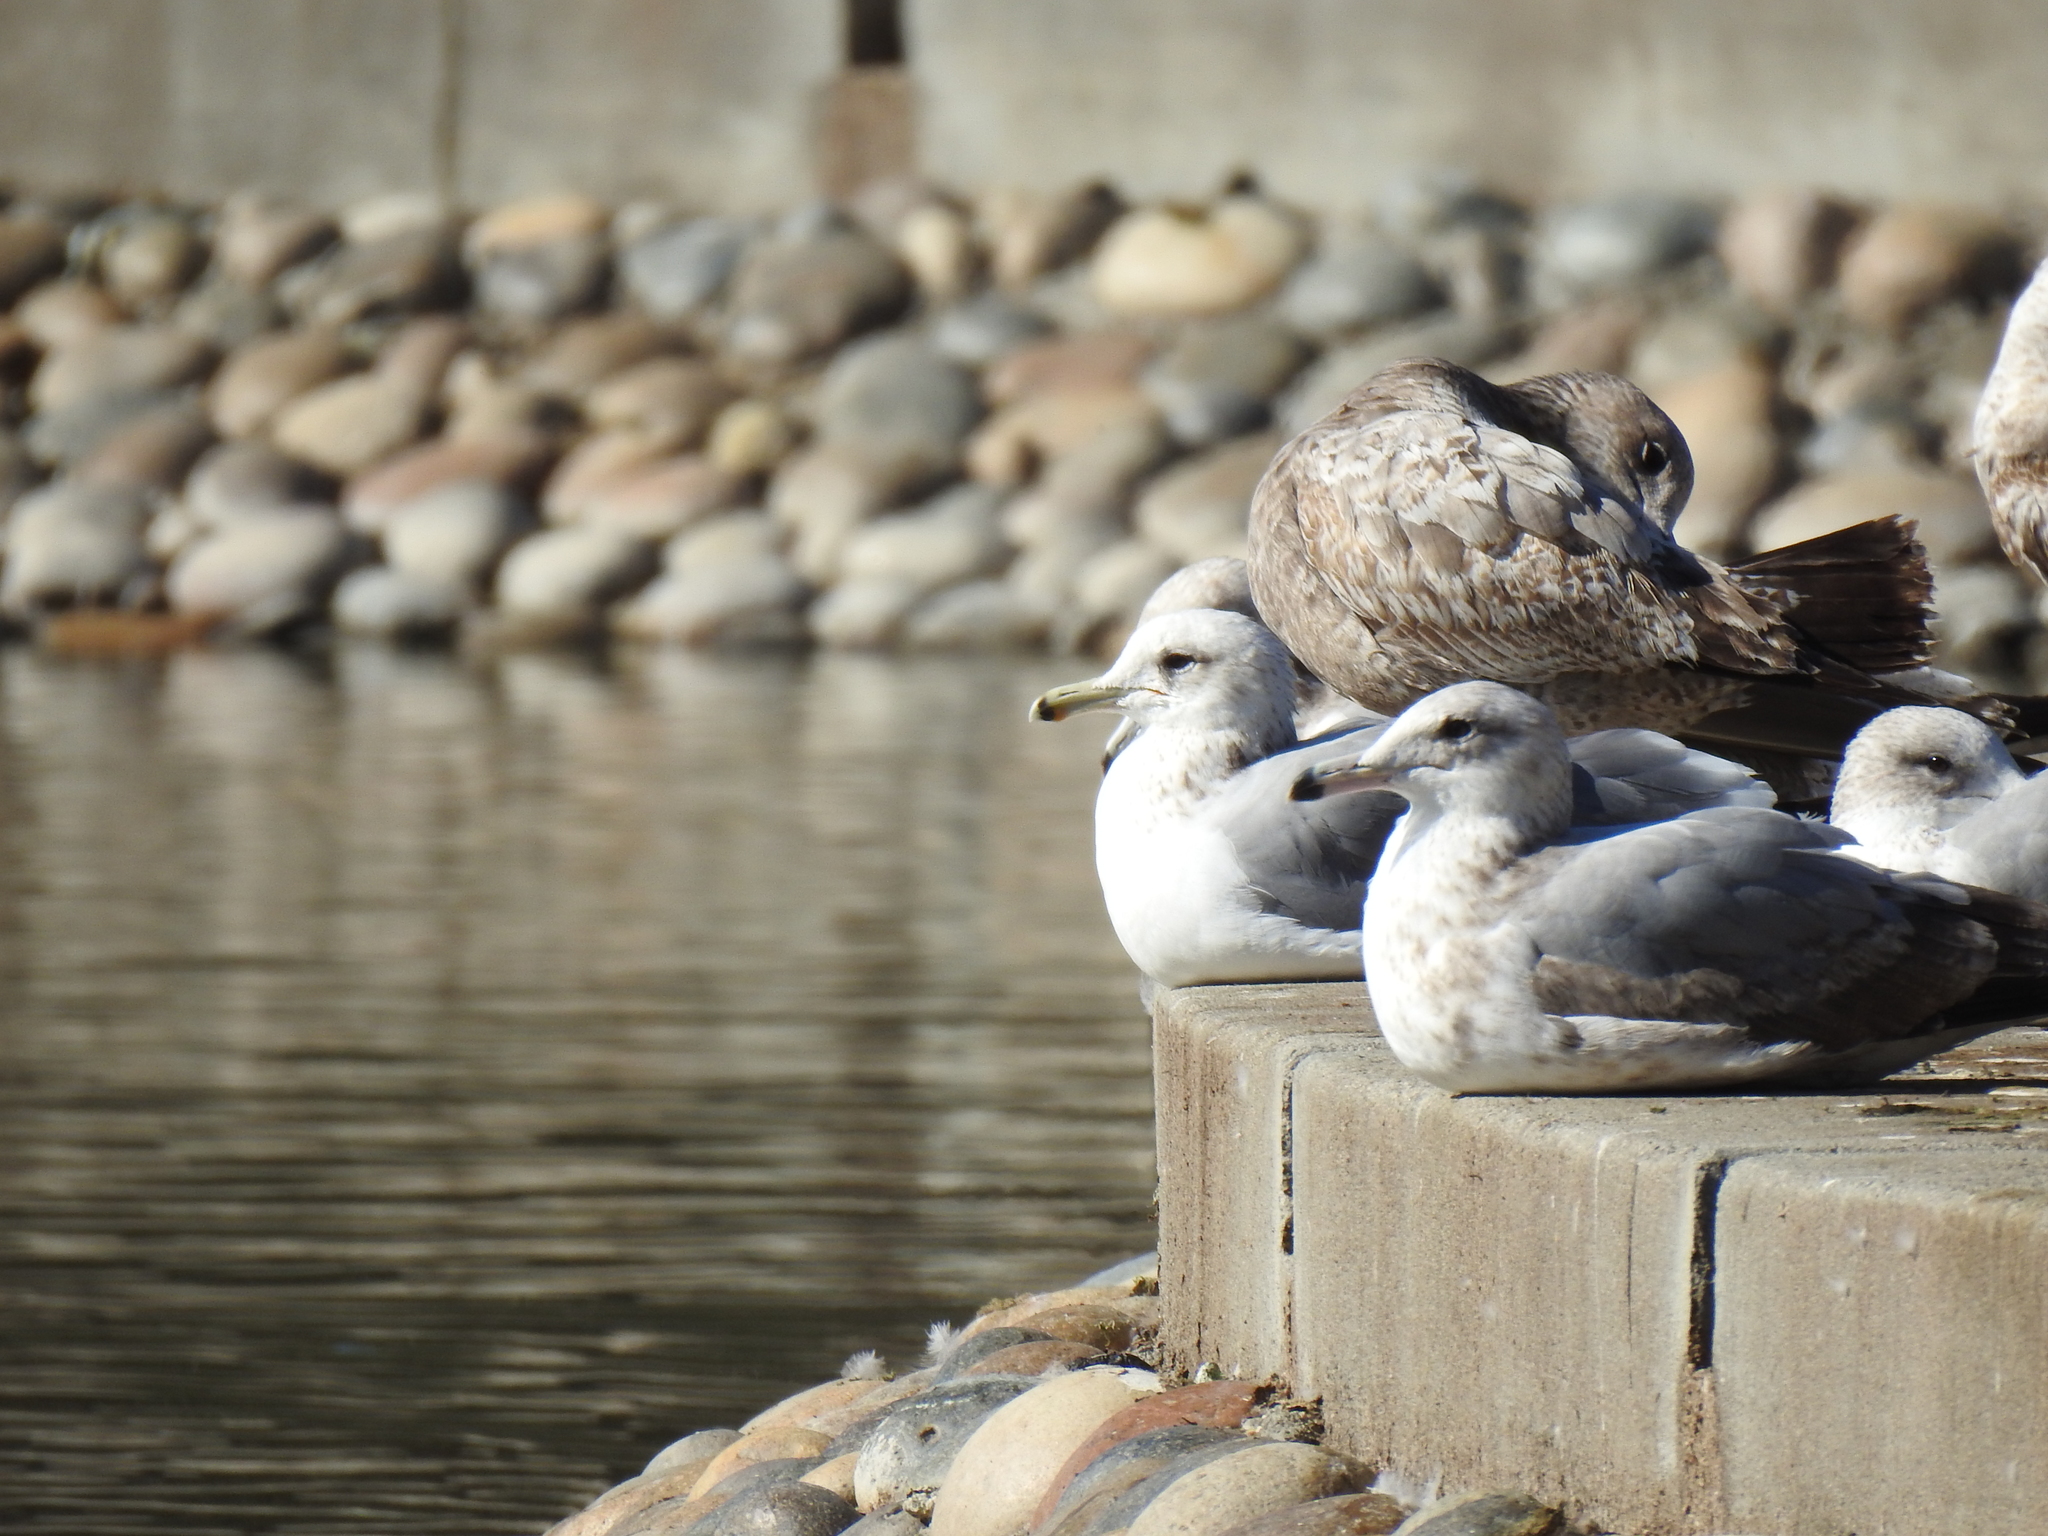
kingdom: Animalia
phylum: Chordata
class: Aves
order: Charadriiformes
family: Laridae
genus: Larus
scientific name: Larus californicus
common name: California gull
